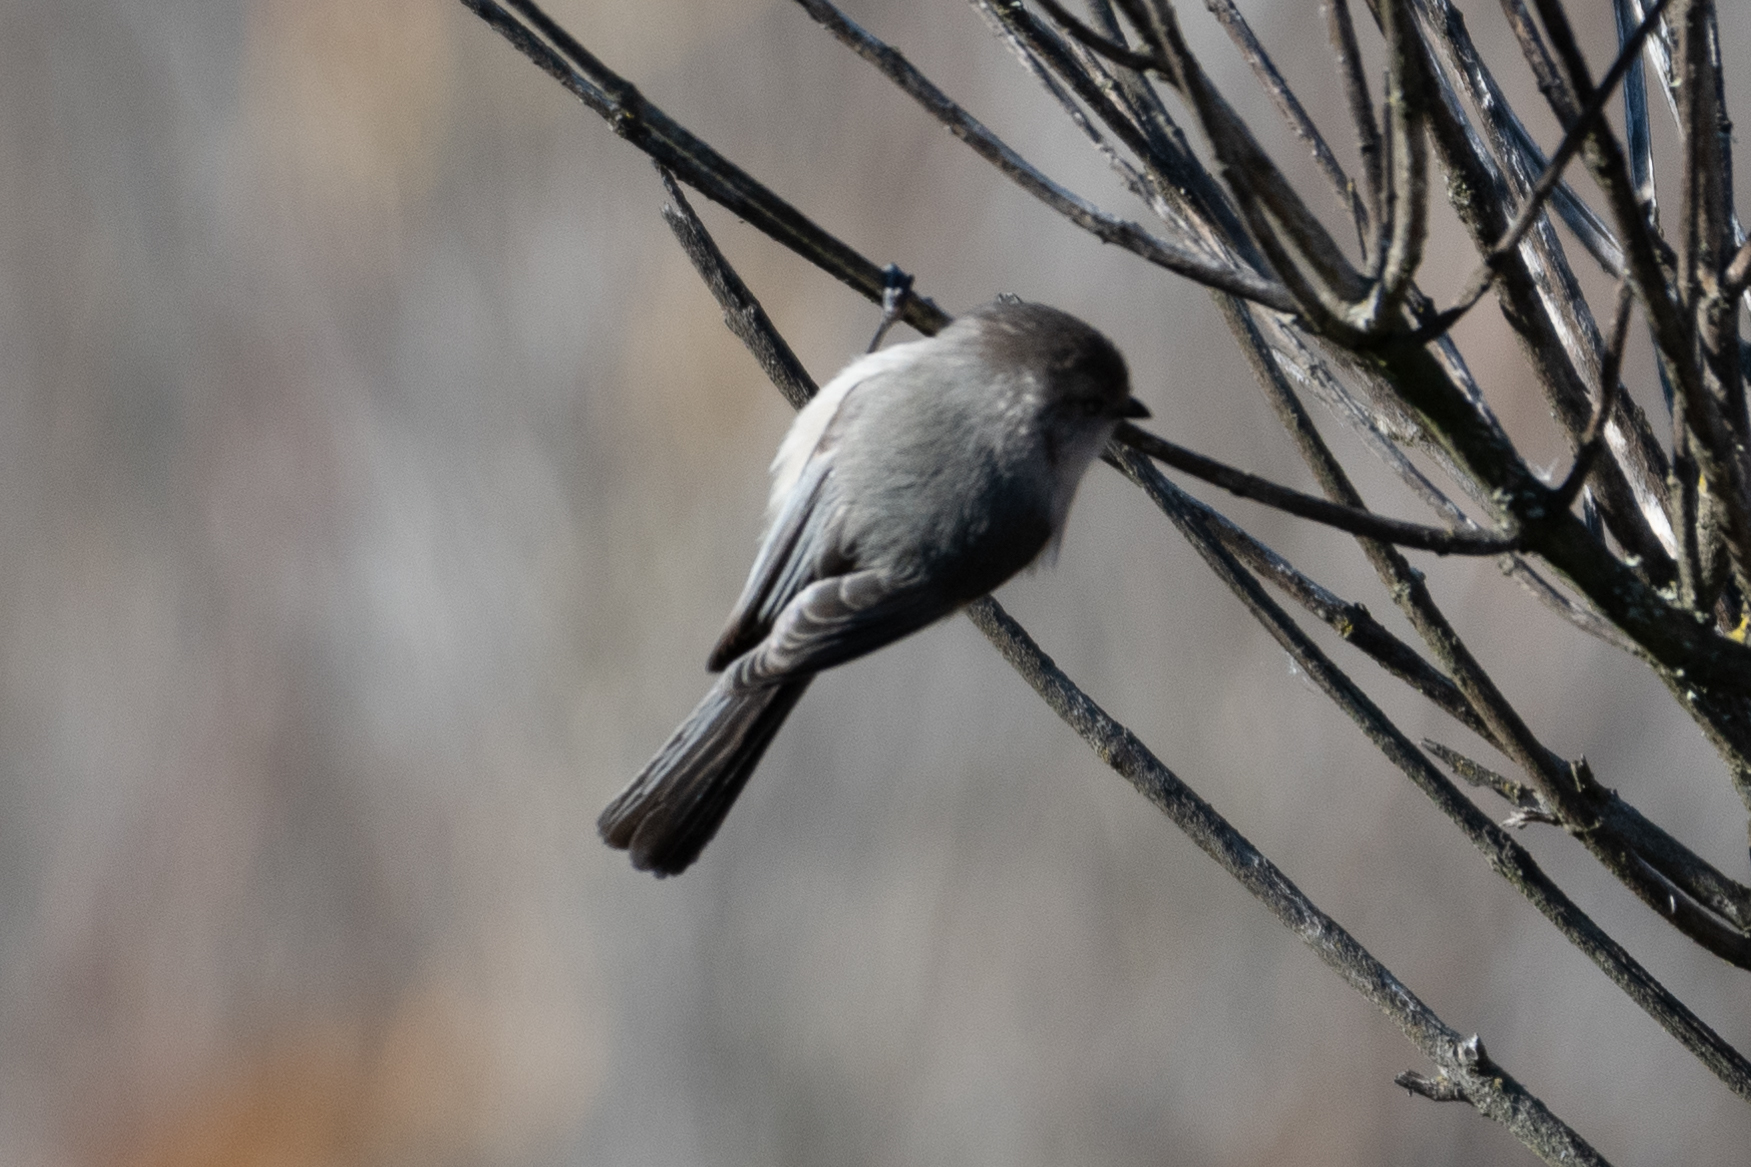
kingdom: Animalia
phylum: Chordata
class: Aves
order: Passeriformes
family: Aegithalidae
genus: Psaltriparus
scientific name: Psaltriparus minimus
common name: American bushtit
